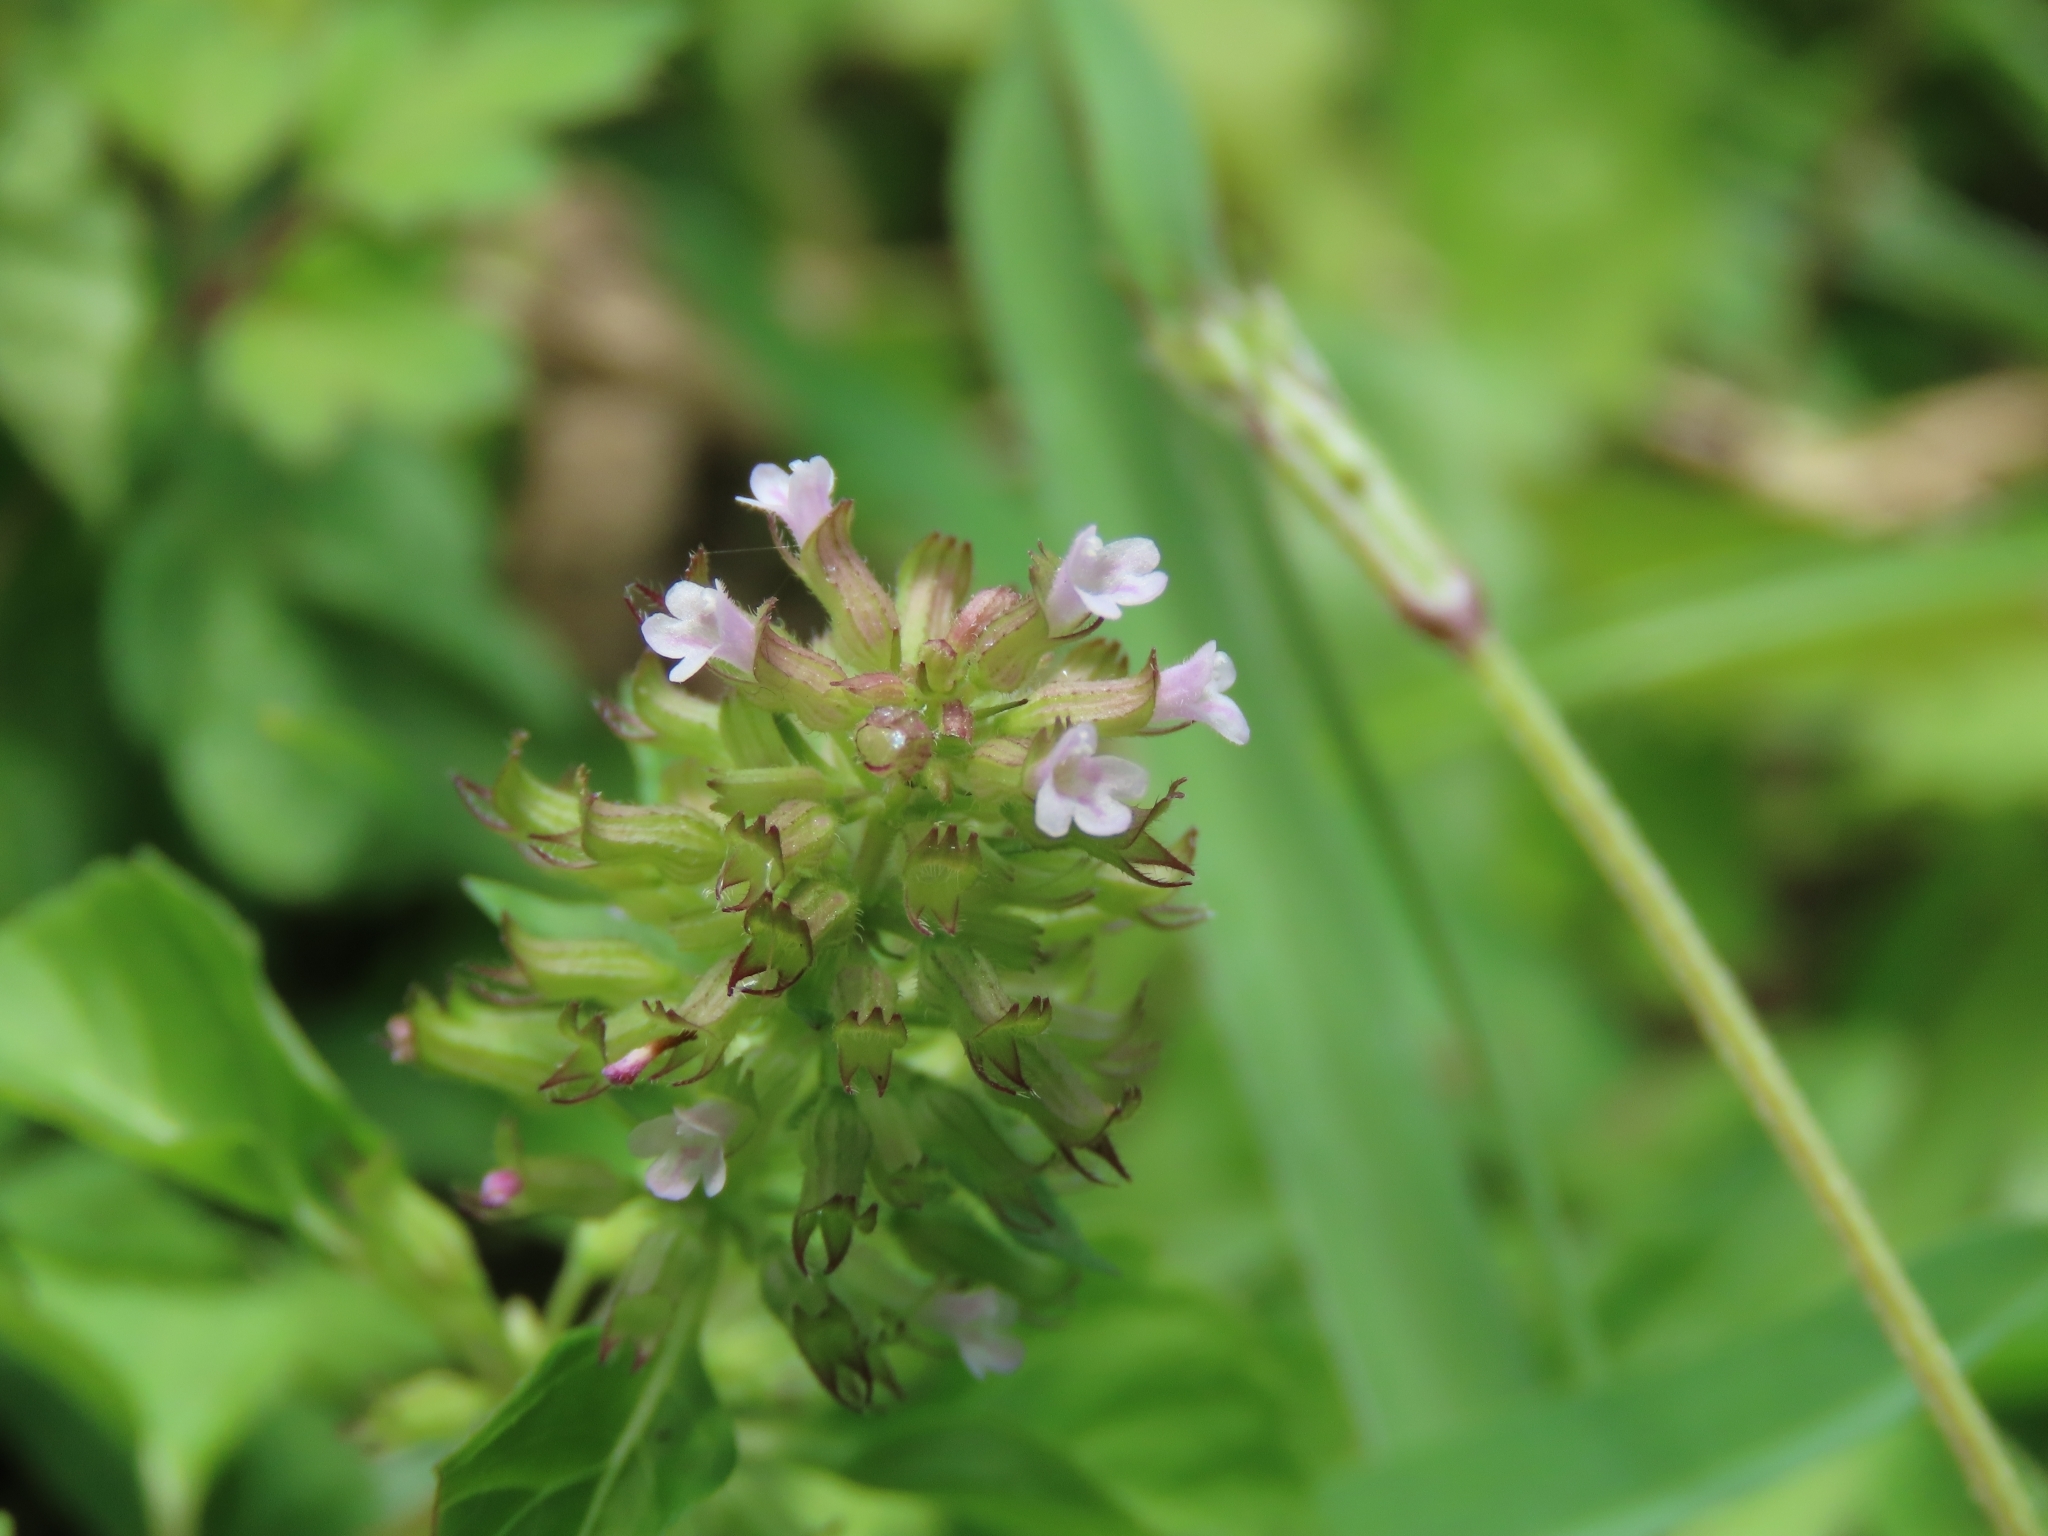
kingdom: Plantae
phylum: Tracheophyta
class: Magnoliopsida
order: Lamiales
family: Lamiaceae
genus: Clinopodium
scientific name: Clinopodium gracile
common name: Slender wild basil
